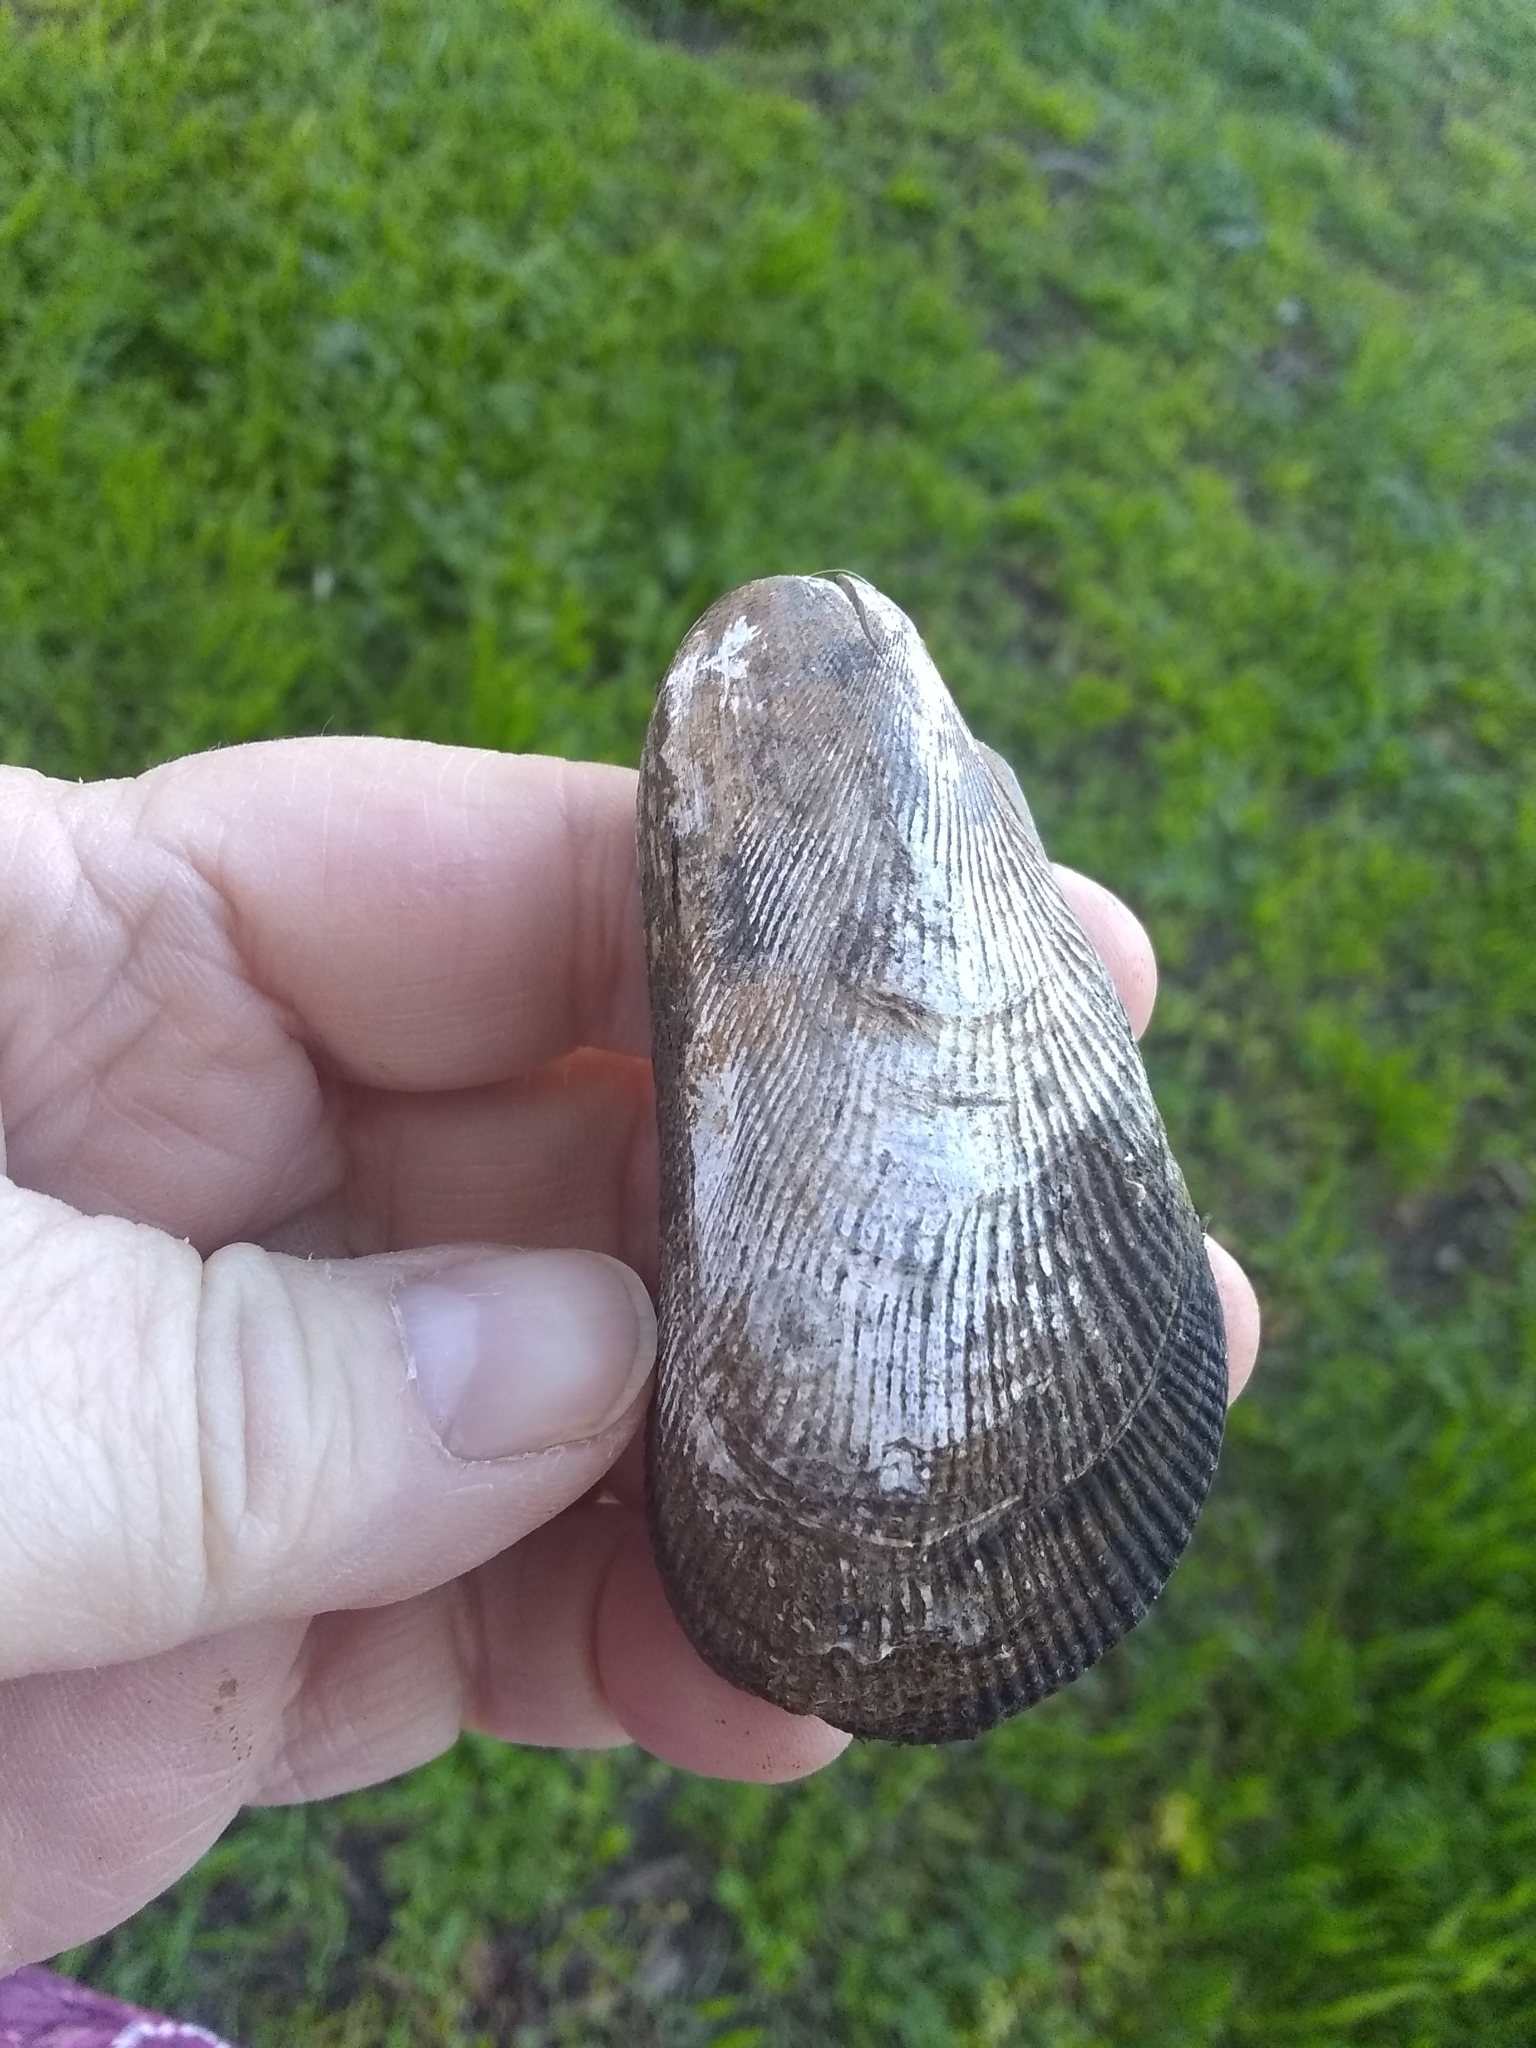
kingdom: Animalia
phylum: Mollusca
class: Bivalvia
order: Mytilida
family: Mytilidae
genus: Geukensia
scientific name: Geukensia demissa
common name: Ribbed mussel
